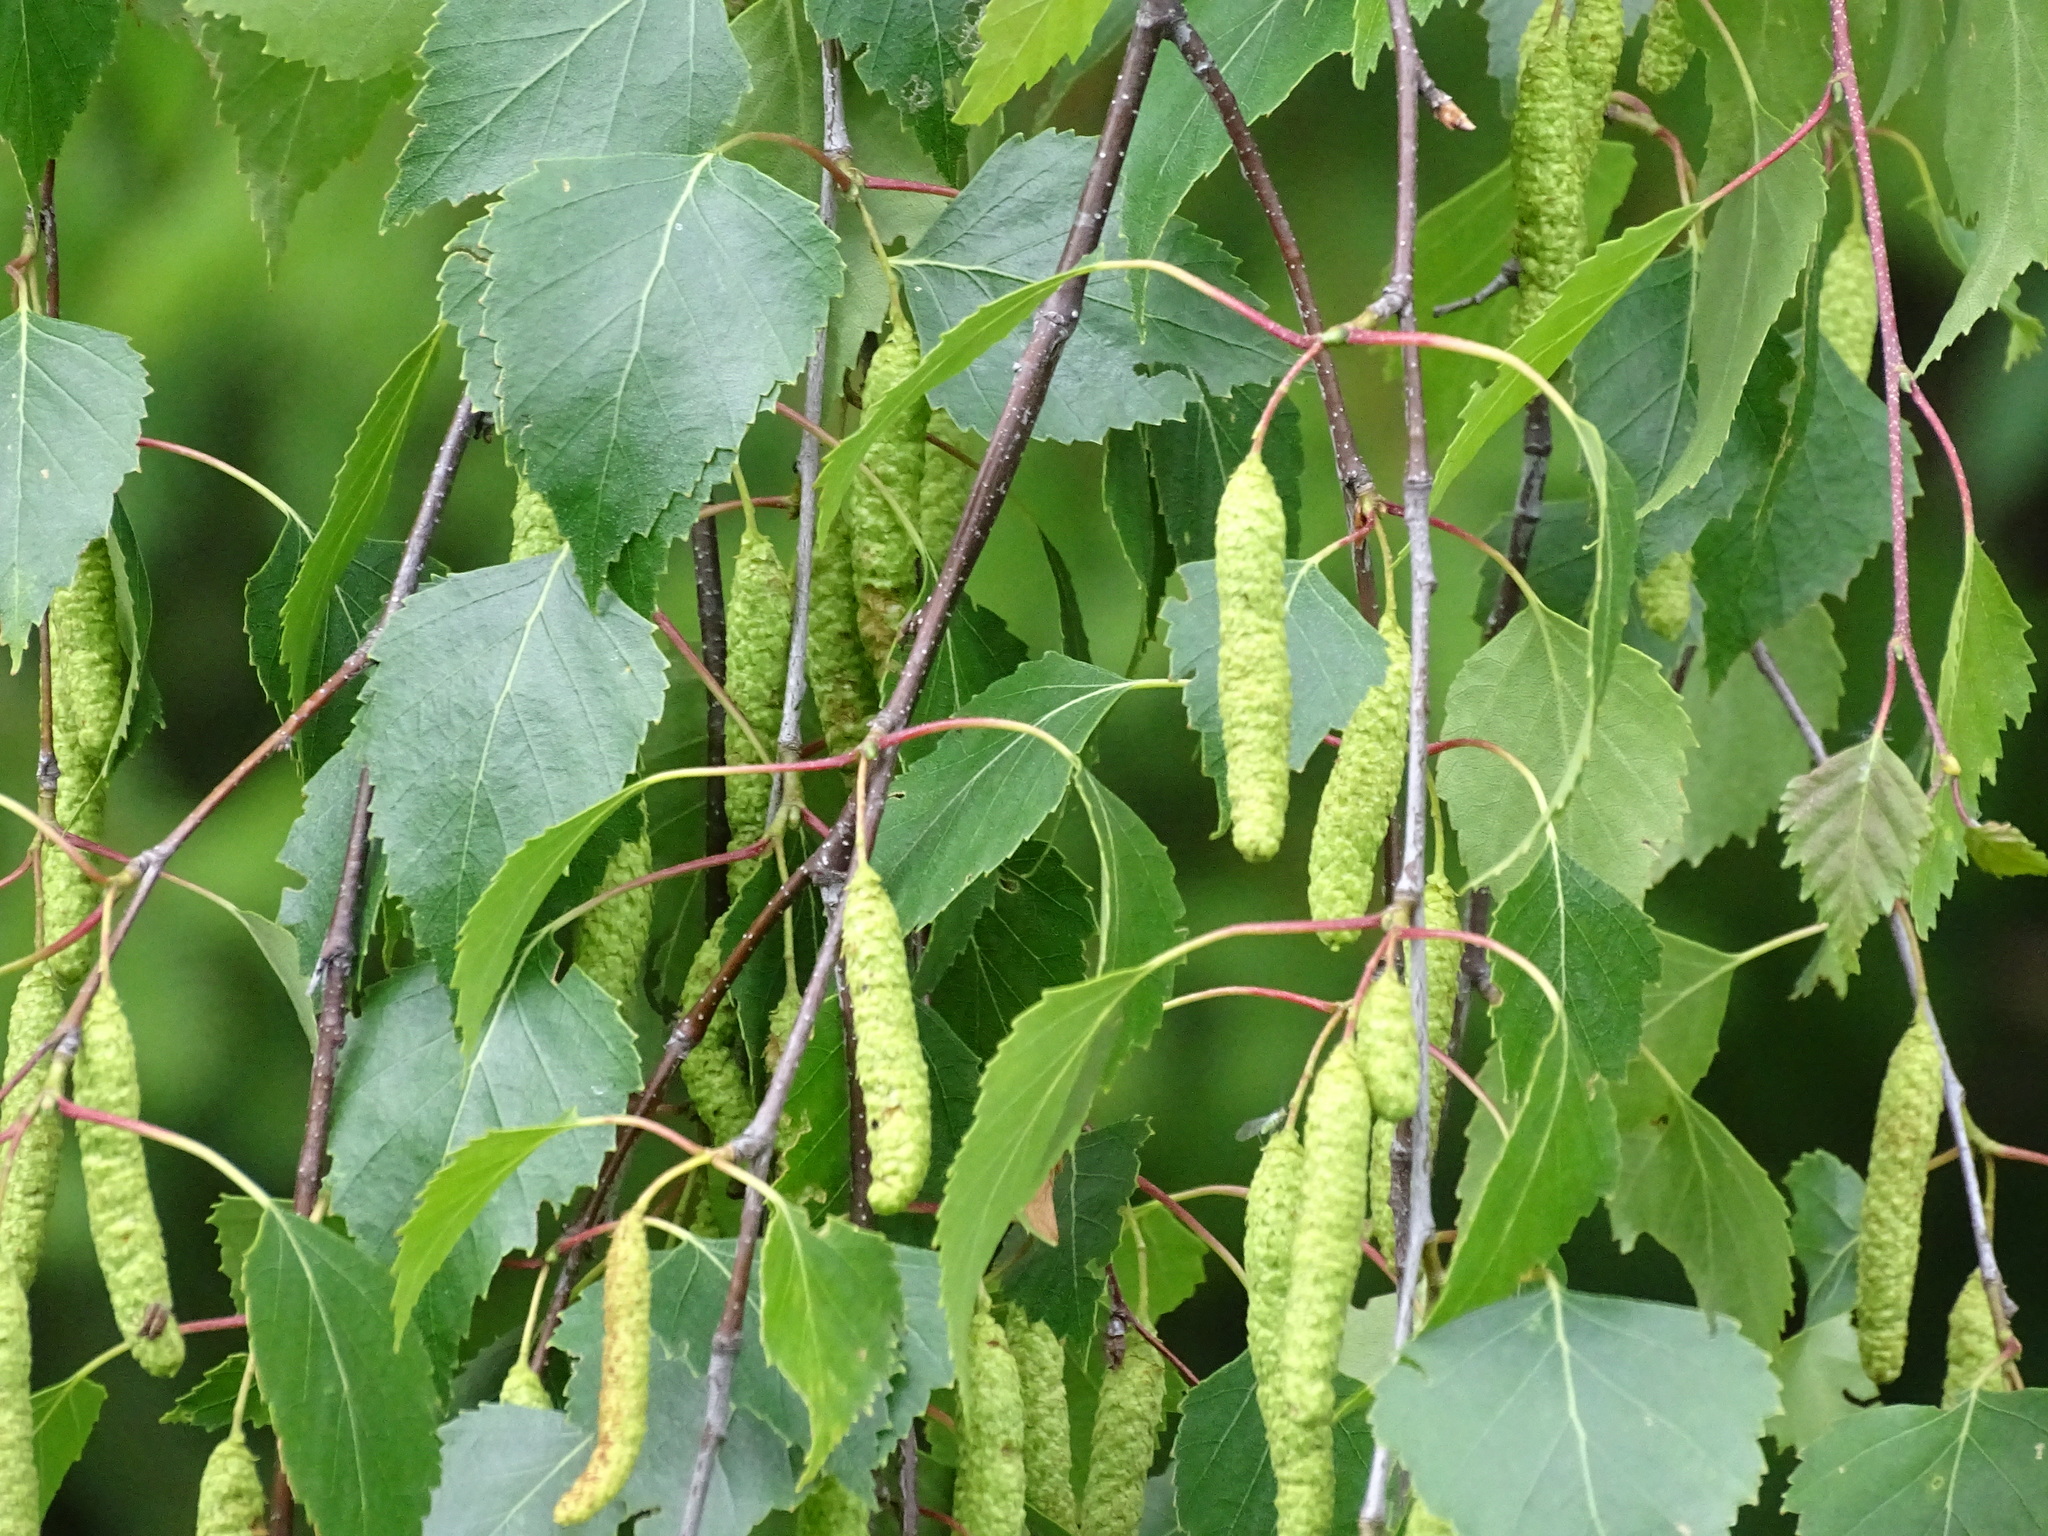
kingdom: Plantae
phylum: Tracheophyta
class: Magnoliopsida
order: Fagales
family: Betulaceae
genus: Betula
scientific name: Betula pendula
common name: Silver birch
